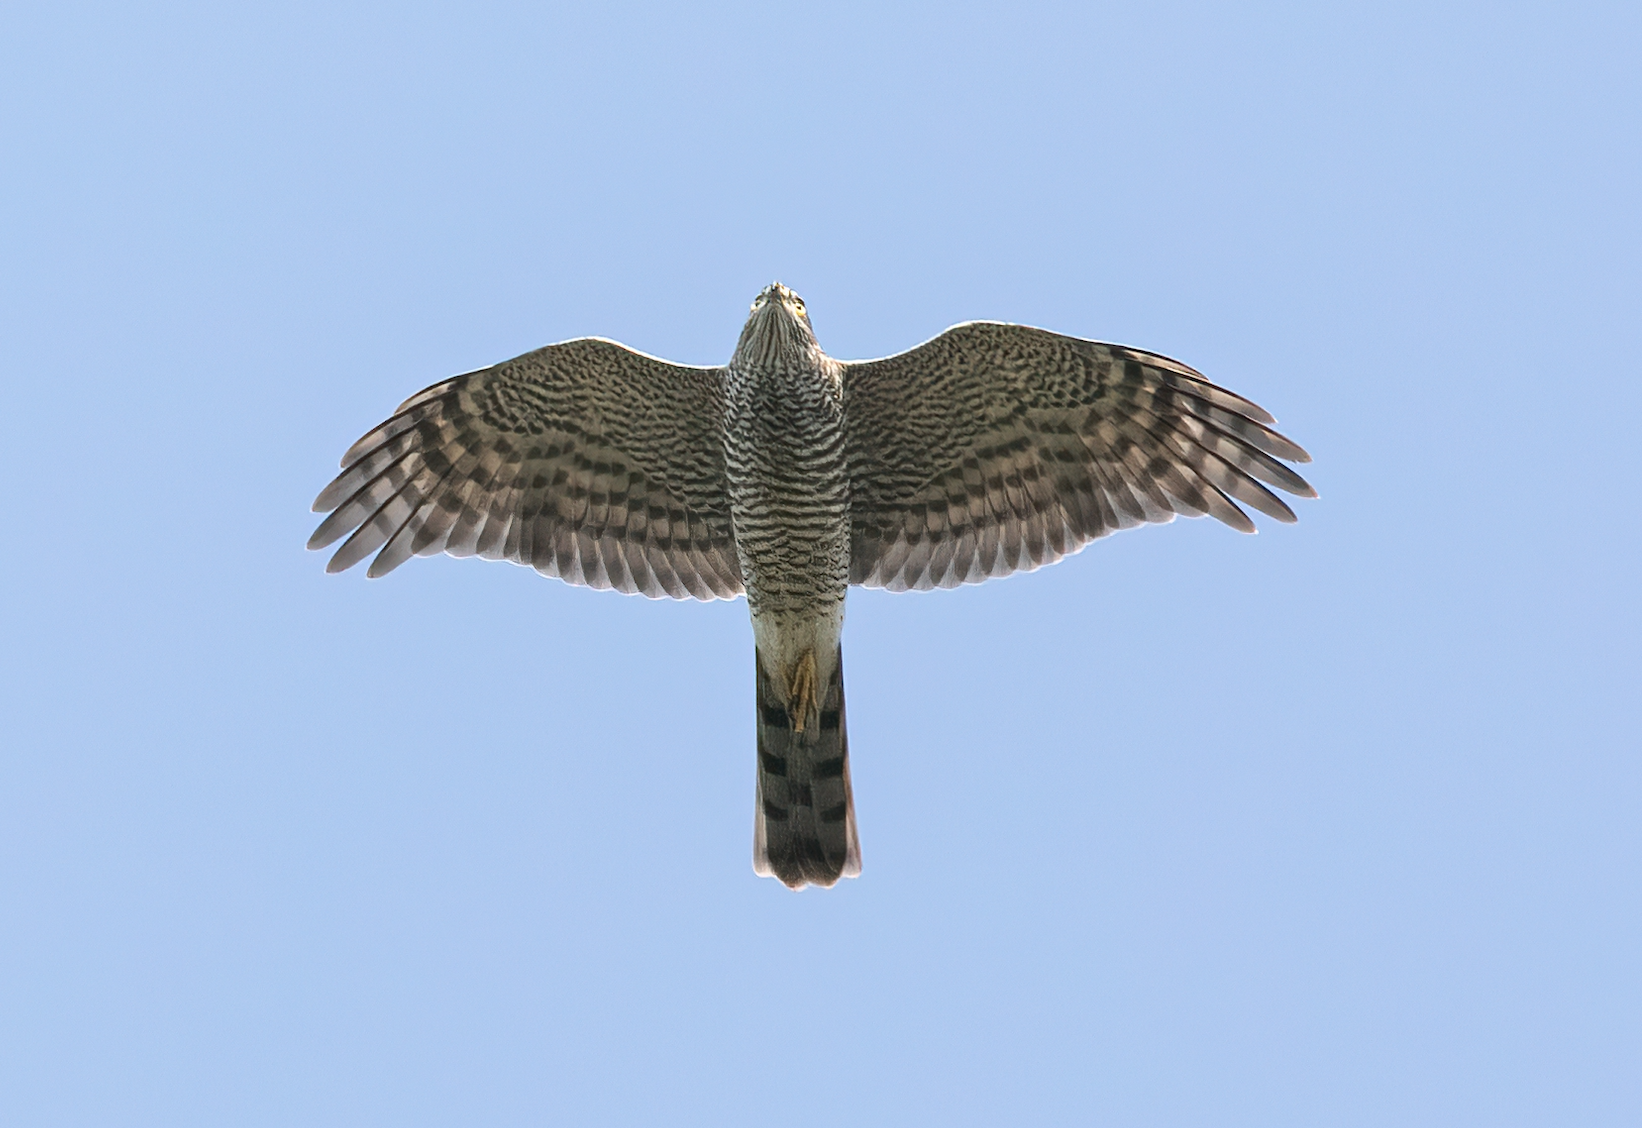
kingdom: Animalia
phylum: Chordata
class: Aves
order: Accipitriformes
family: Accipitridae
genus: Accipiter
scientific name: Accipiter nisus
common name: Eurasian sparrowhawk
